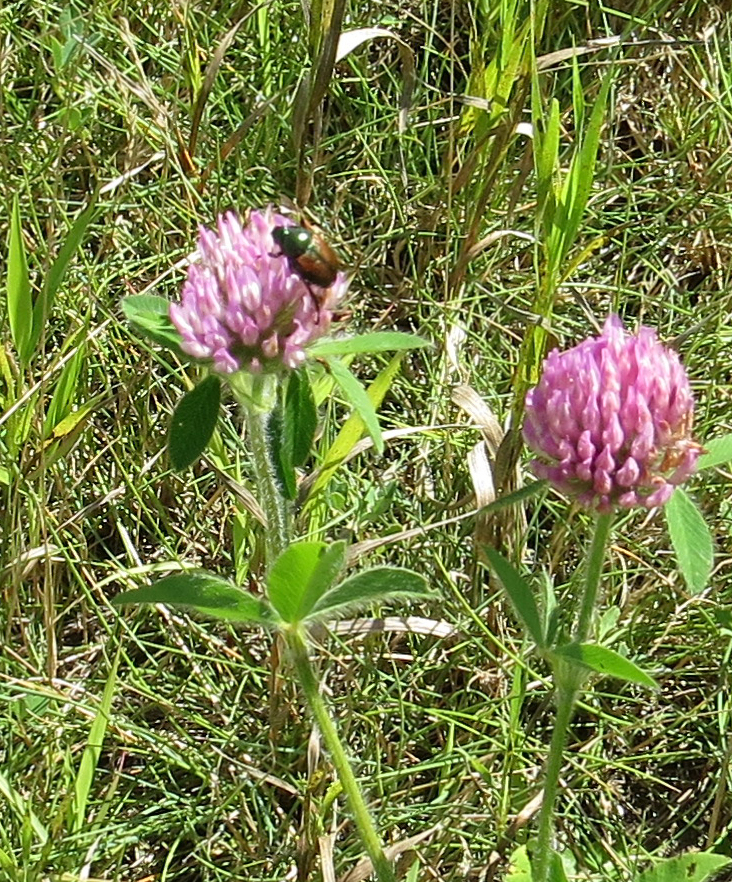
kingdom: Animalia
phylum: Arthropoda
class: Insecta
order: Coleoptera
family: Scarabaeidae
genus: Popillia
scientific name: Popillia japonica
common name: Japanese beetle
